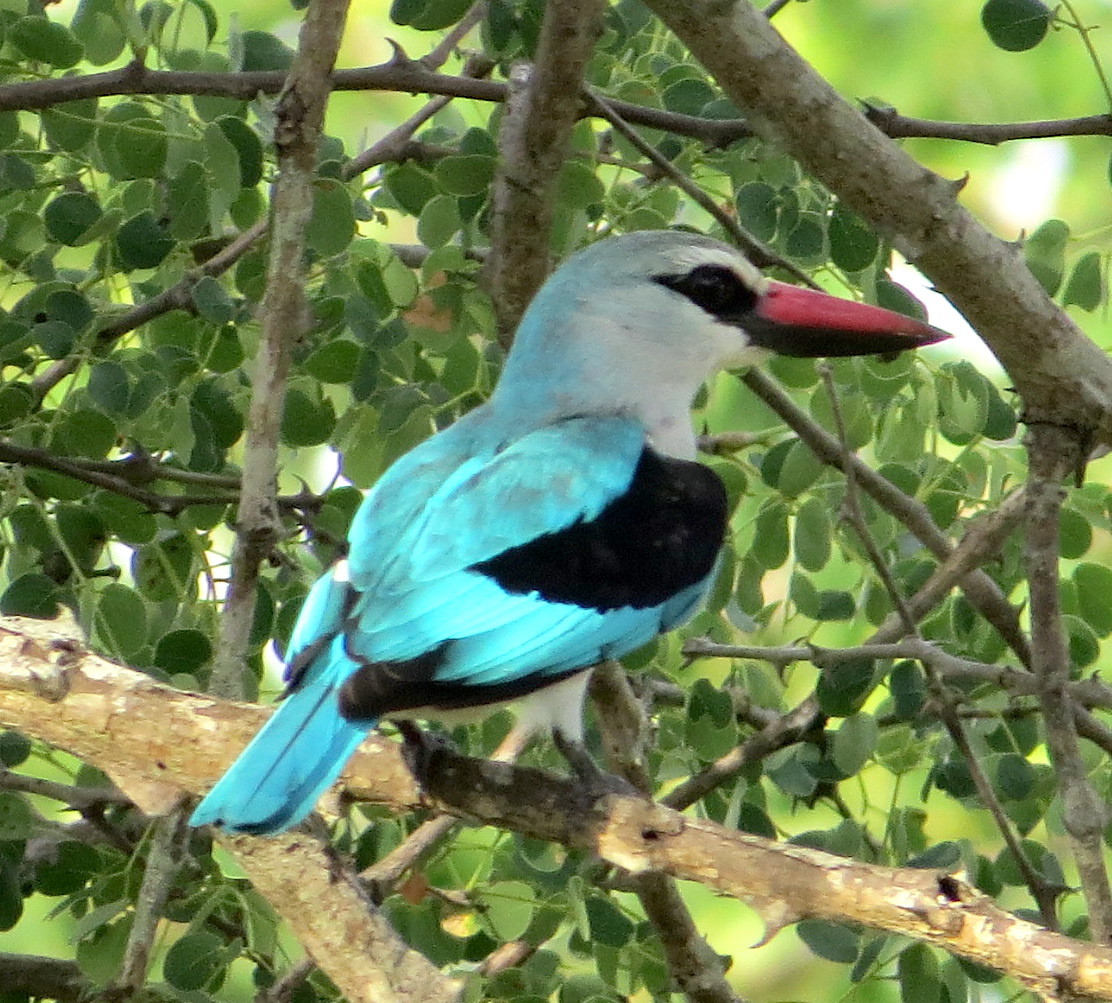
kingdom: Animalia
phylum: Chordata
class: Aves
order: Coraciiformes
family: Alcedinidae
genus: Halcyon
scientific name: Halcyon senegalensis
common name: Woodland kingfisher
